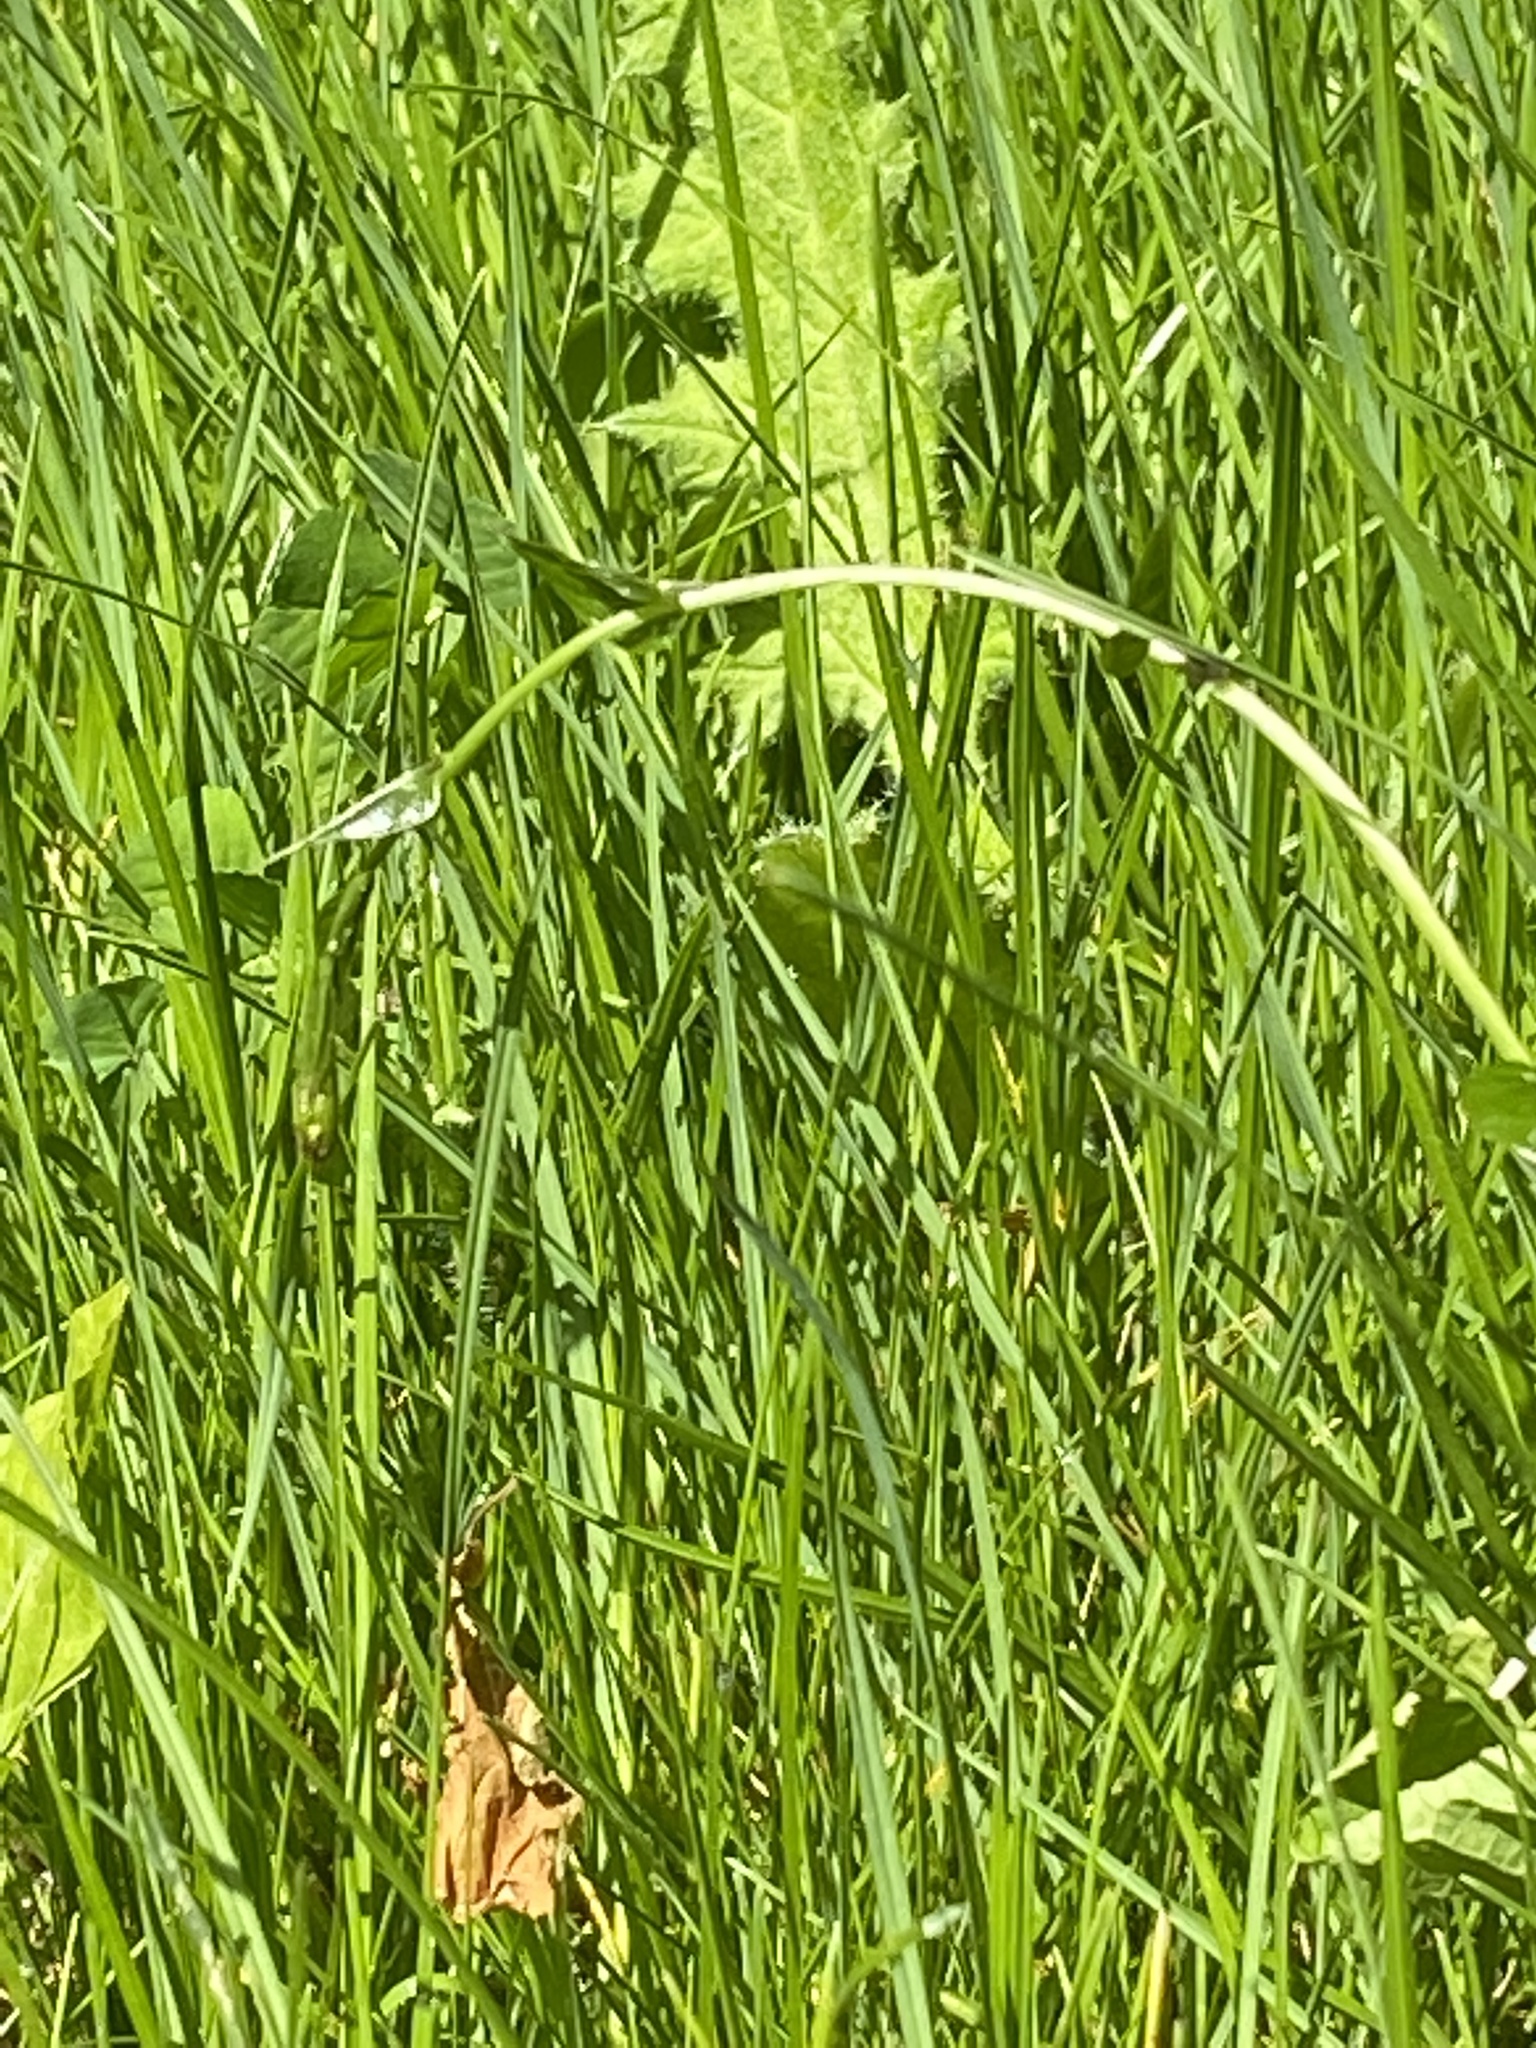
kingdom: Plantae
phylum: Tracheophyta
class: Liliopsida
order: Dioscoreales
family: Dioscoreaceae
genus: Dioscorea
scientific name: Dioscorea communis
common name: Black-bindweed
